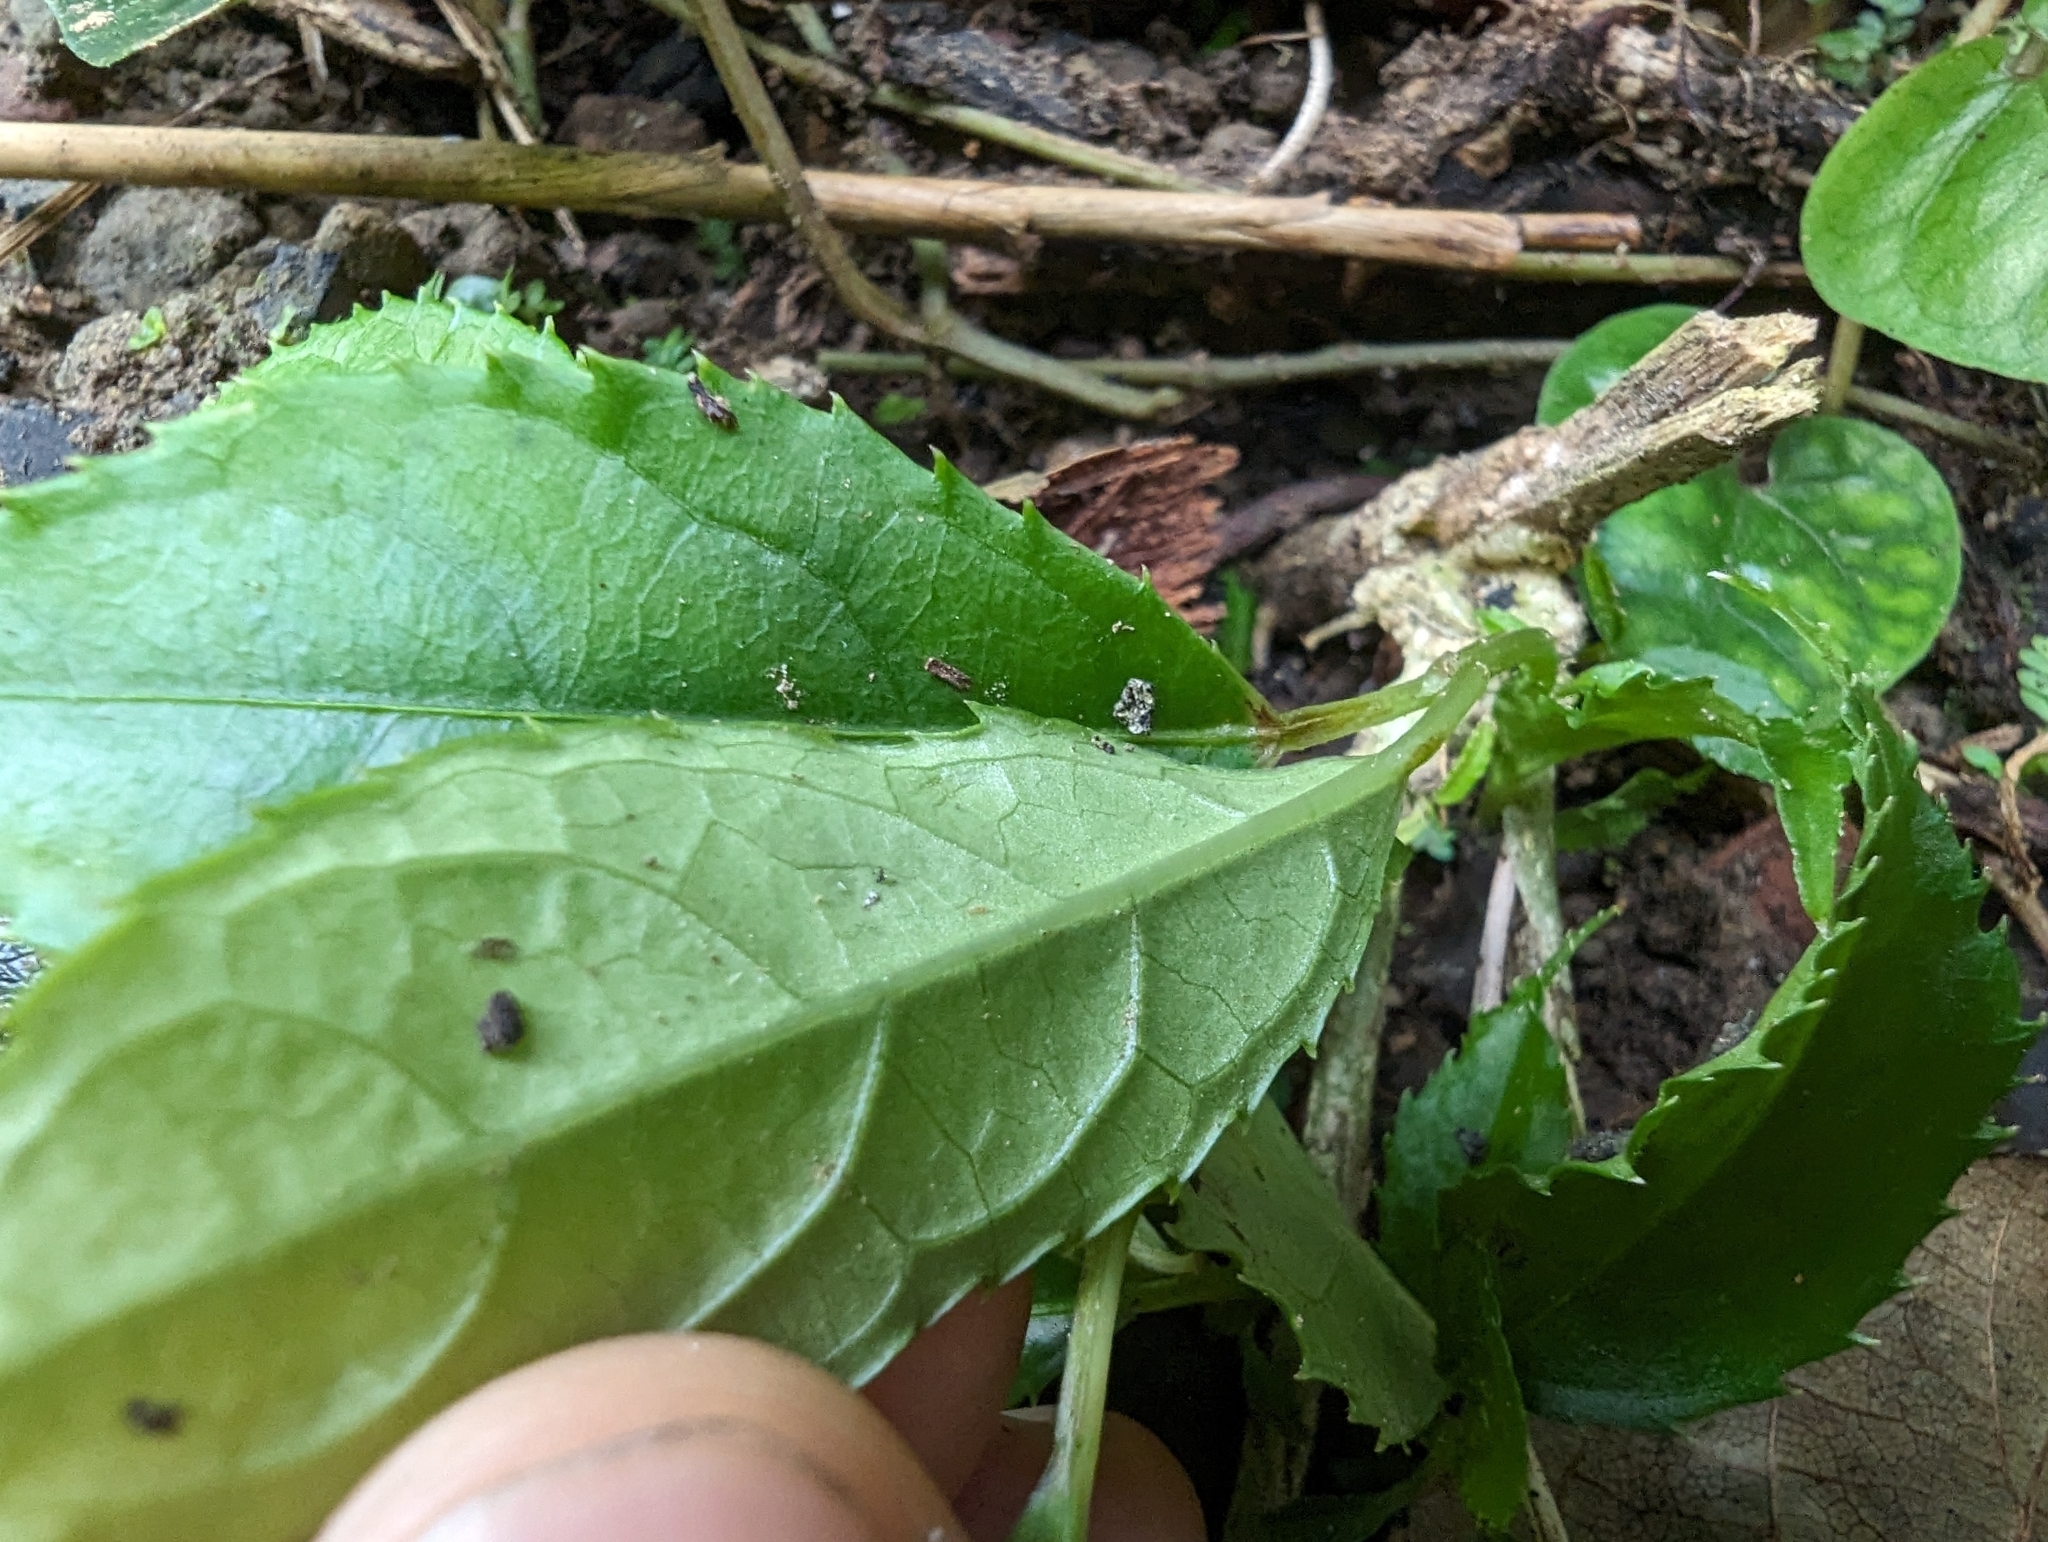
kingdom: Plantae
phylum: Tracheophyta
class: Magnoliopsida
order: Cornales
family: Hydrangeaceae
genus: Hydrangea
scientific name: Hydrangea chinensis
